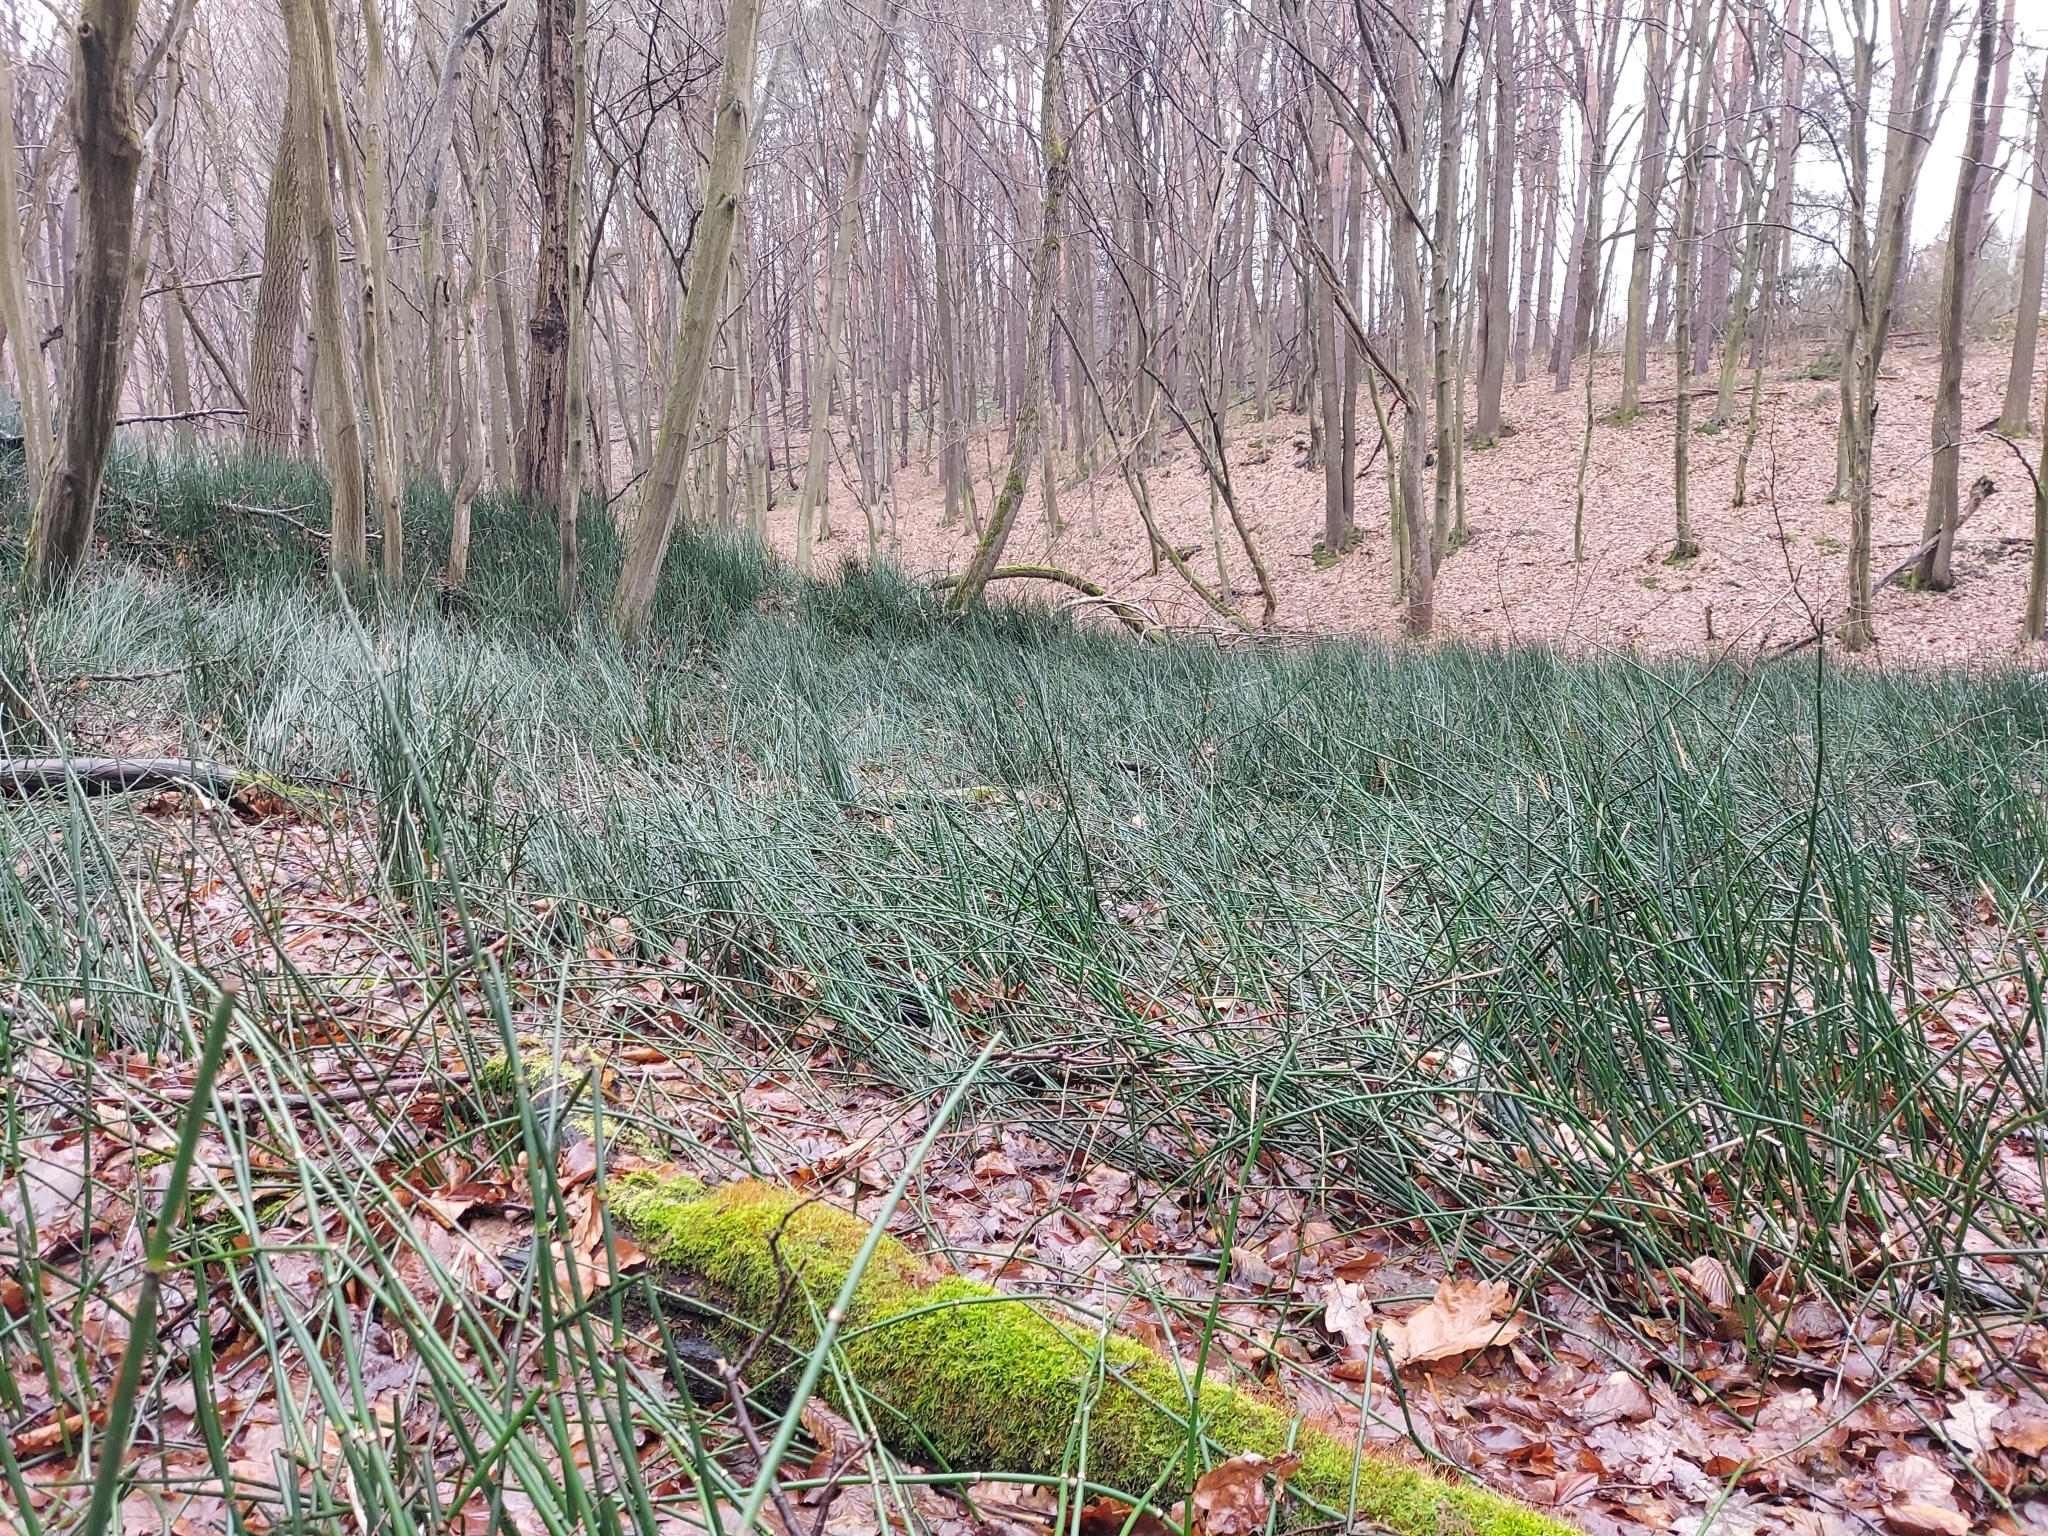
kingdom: Plantae
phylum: Tracheophyta
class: Polypodiopsida
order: Equisetales
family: Equisetaceae
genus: Equisetum
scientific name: Equisetum hyemale
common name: Rough horsetail
